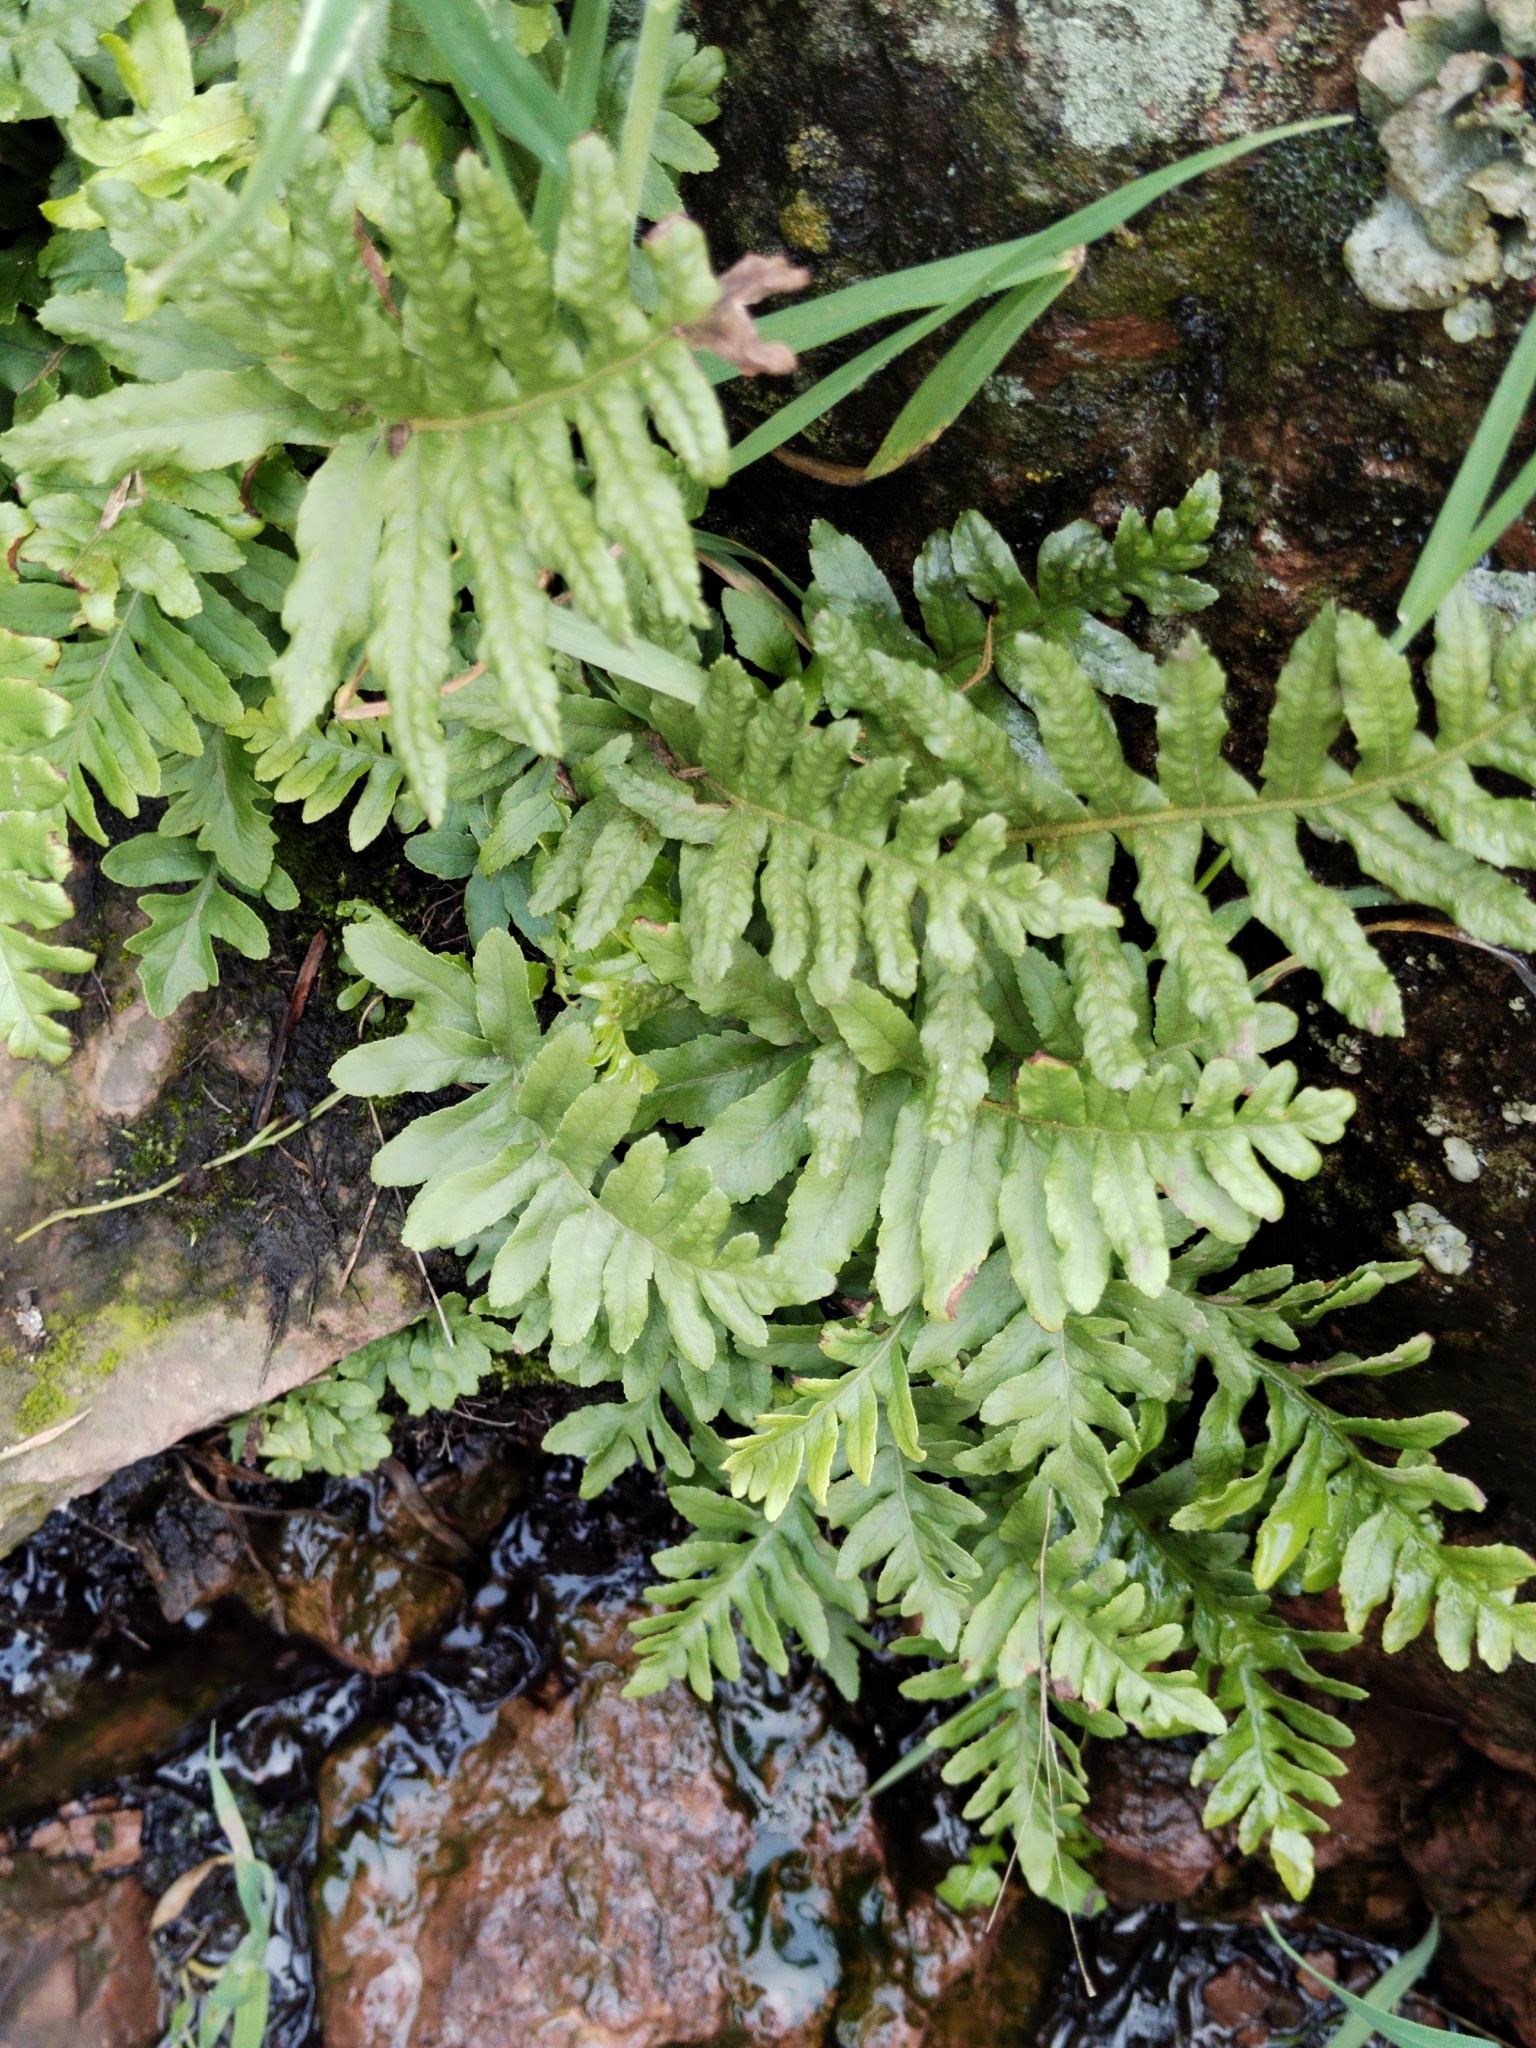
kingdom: Plantae
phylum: Tracheophyta
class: Polypodiopsida
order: Polypodiales
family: Polypodiaceae
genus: Polypodium
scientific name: Polypodium californicum
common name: California polypody
